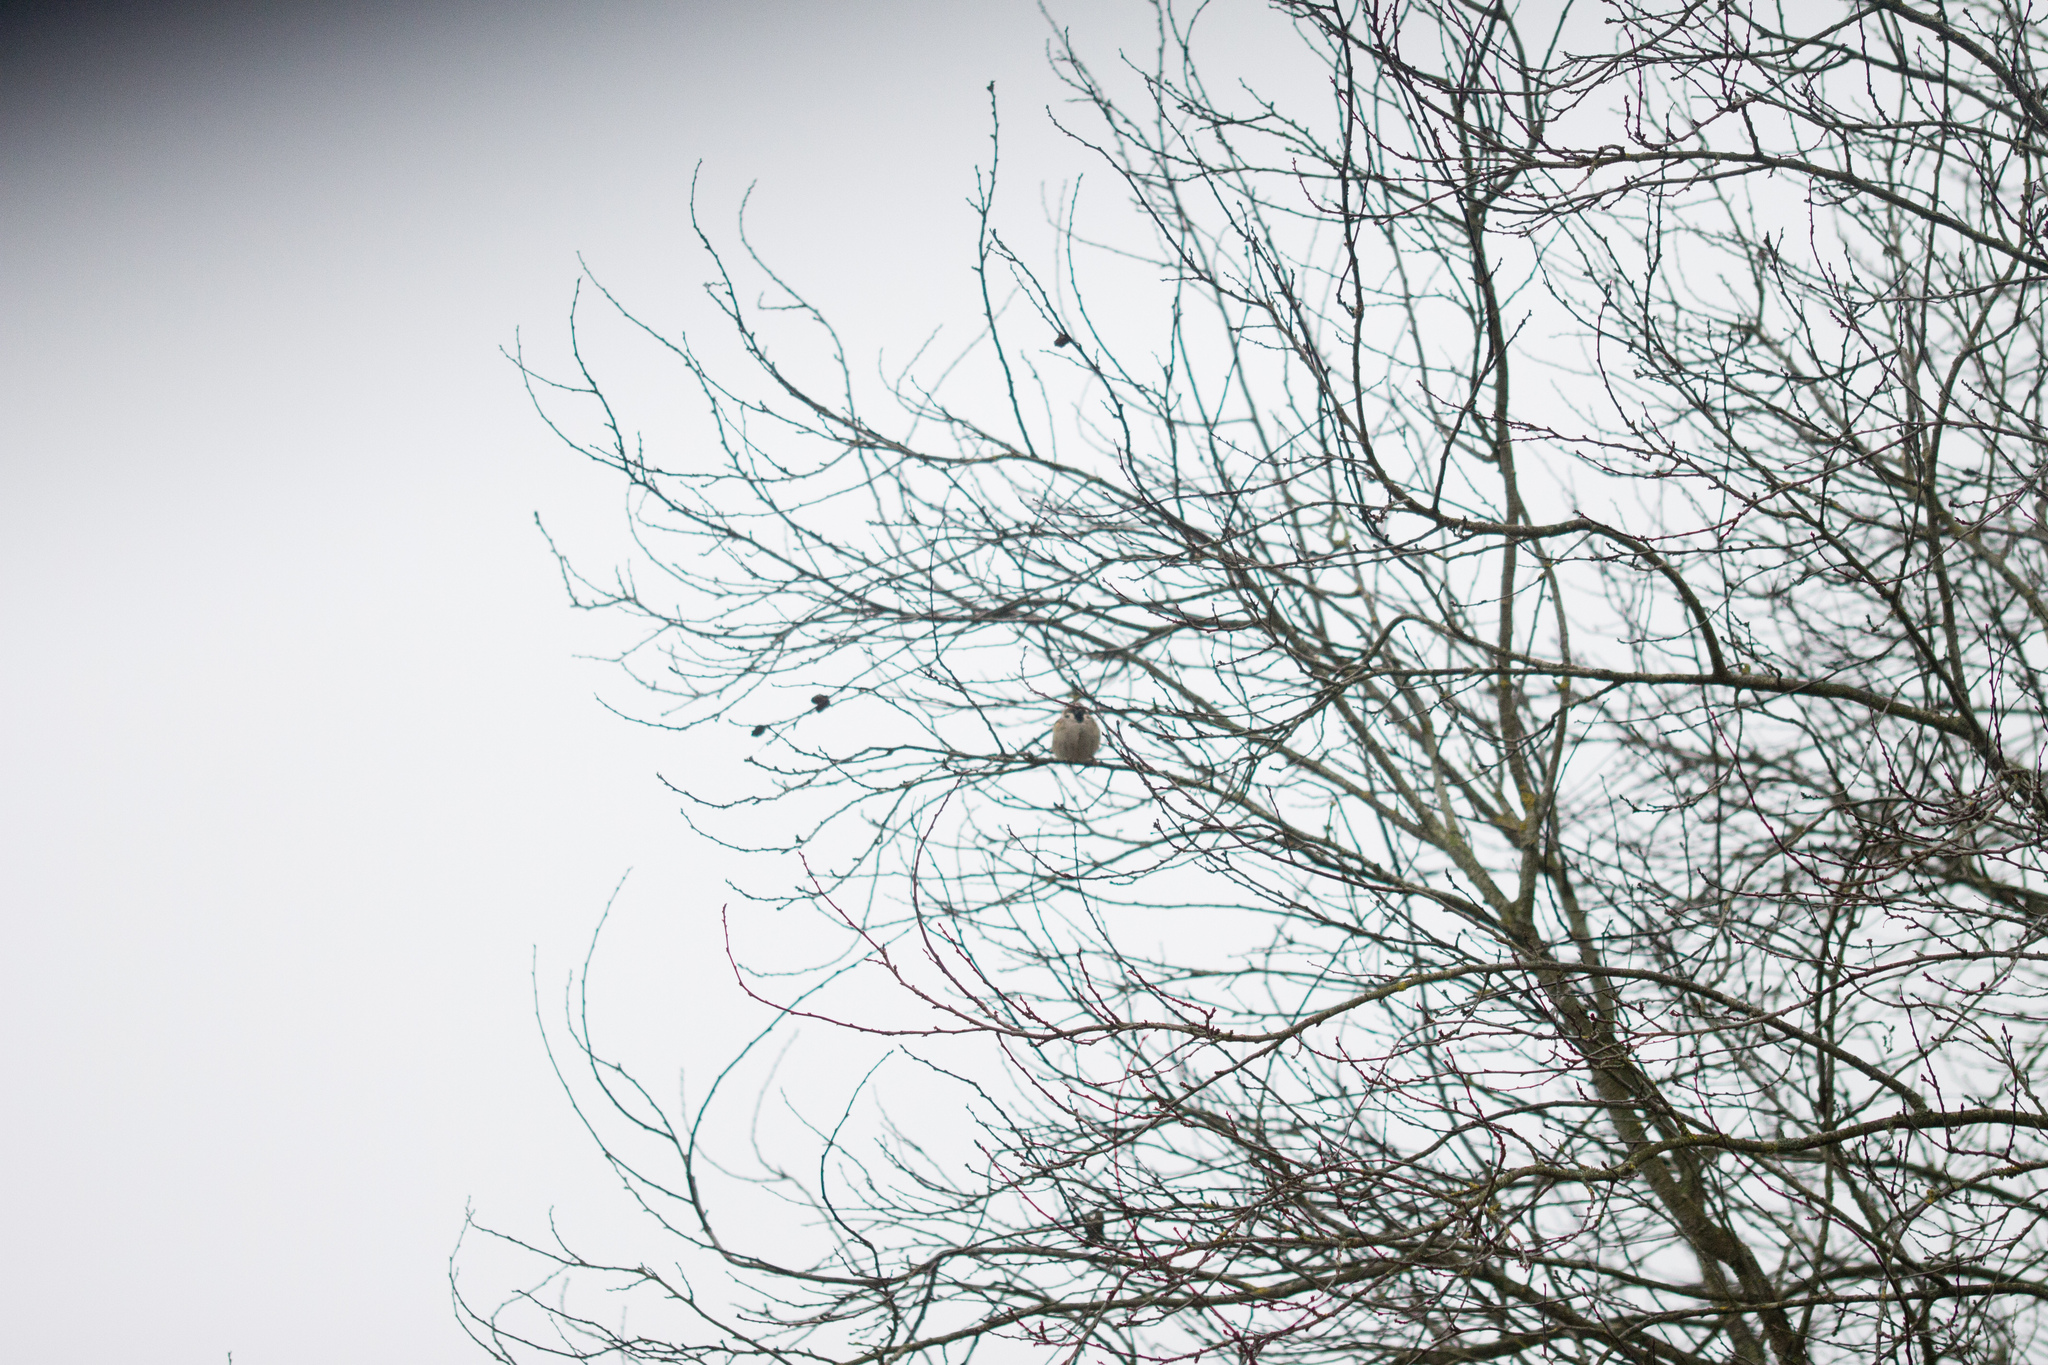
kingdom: Animalia
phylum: Chordata
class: Aves
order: Passeriformes
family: Passeridae
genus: Passer
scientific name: Passer montanus
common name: Eurasian tree sparrow
